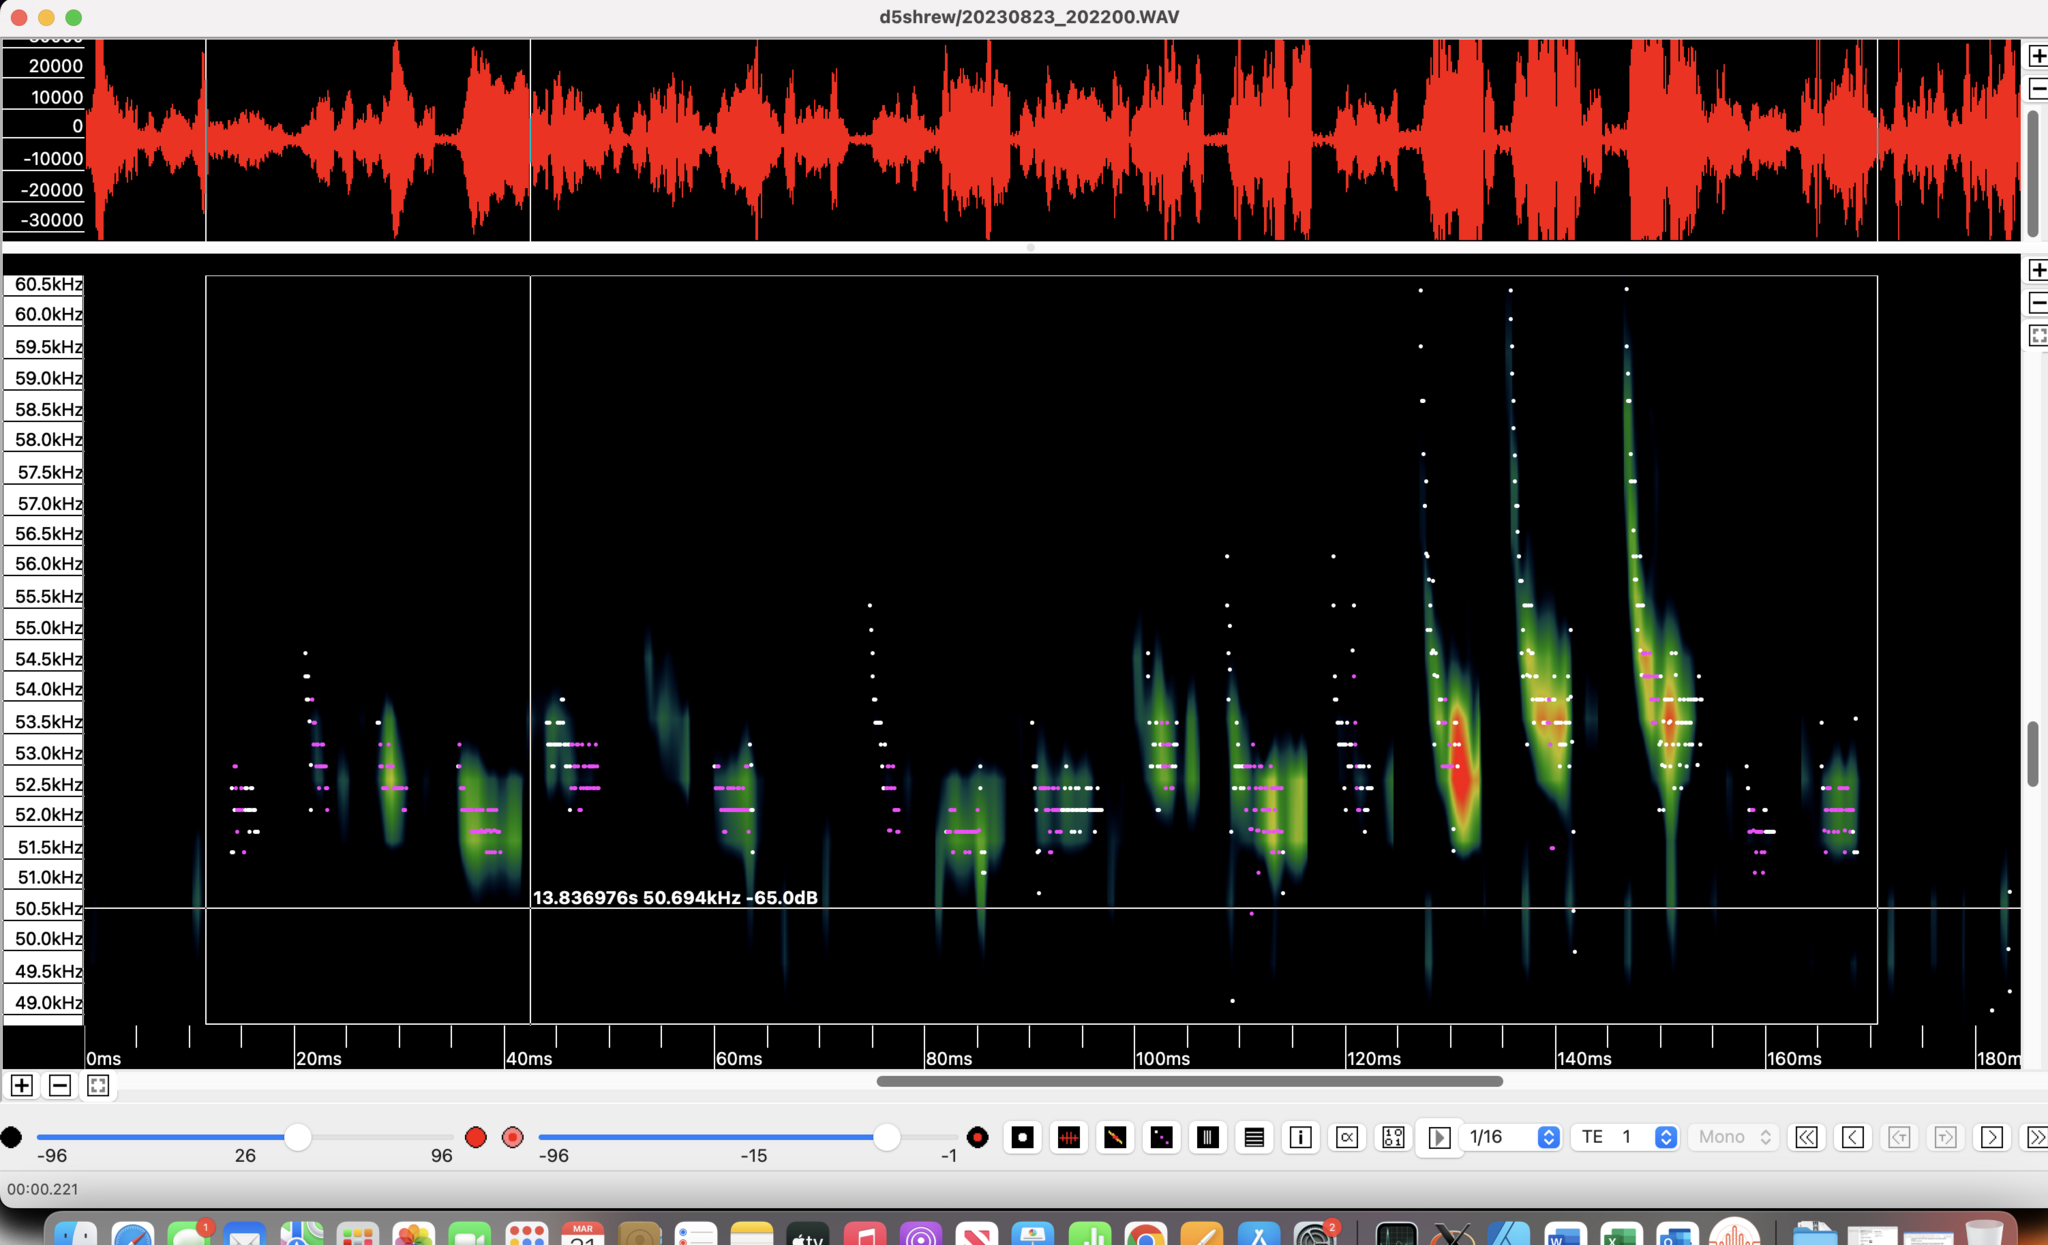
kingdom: Animalia
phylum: Chordata
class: Mammalia
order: Chiroptera
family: Vespertilionidae
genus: Pipistrellus
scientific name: Pipistrellus pygmaeus
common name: Soprano pipistrelle
